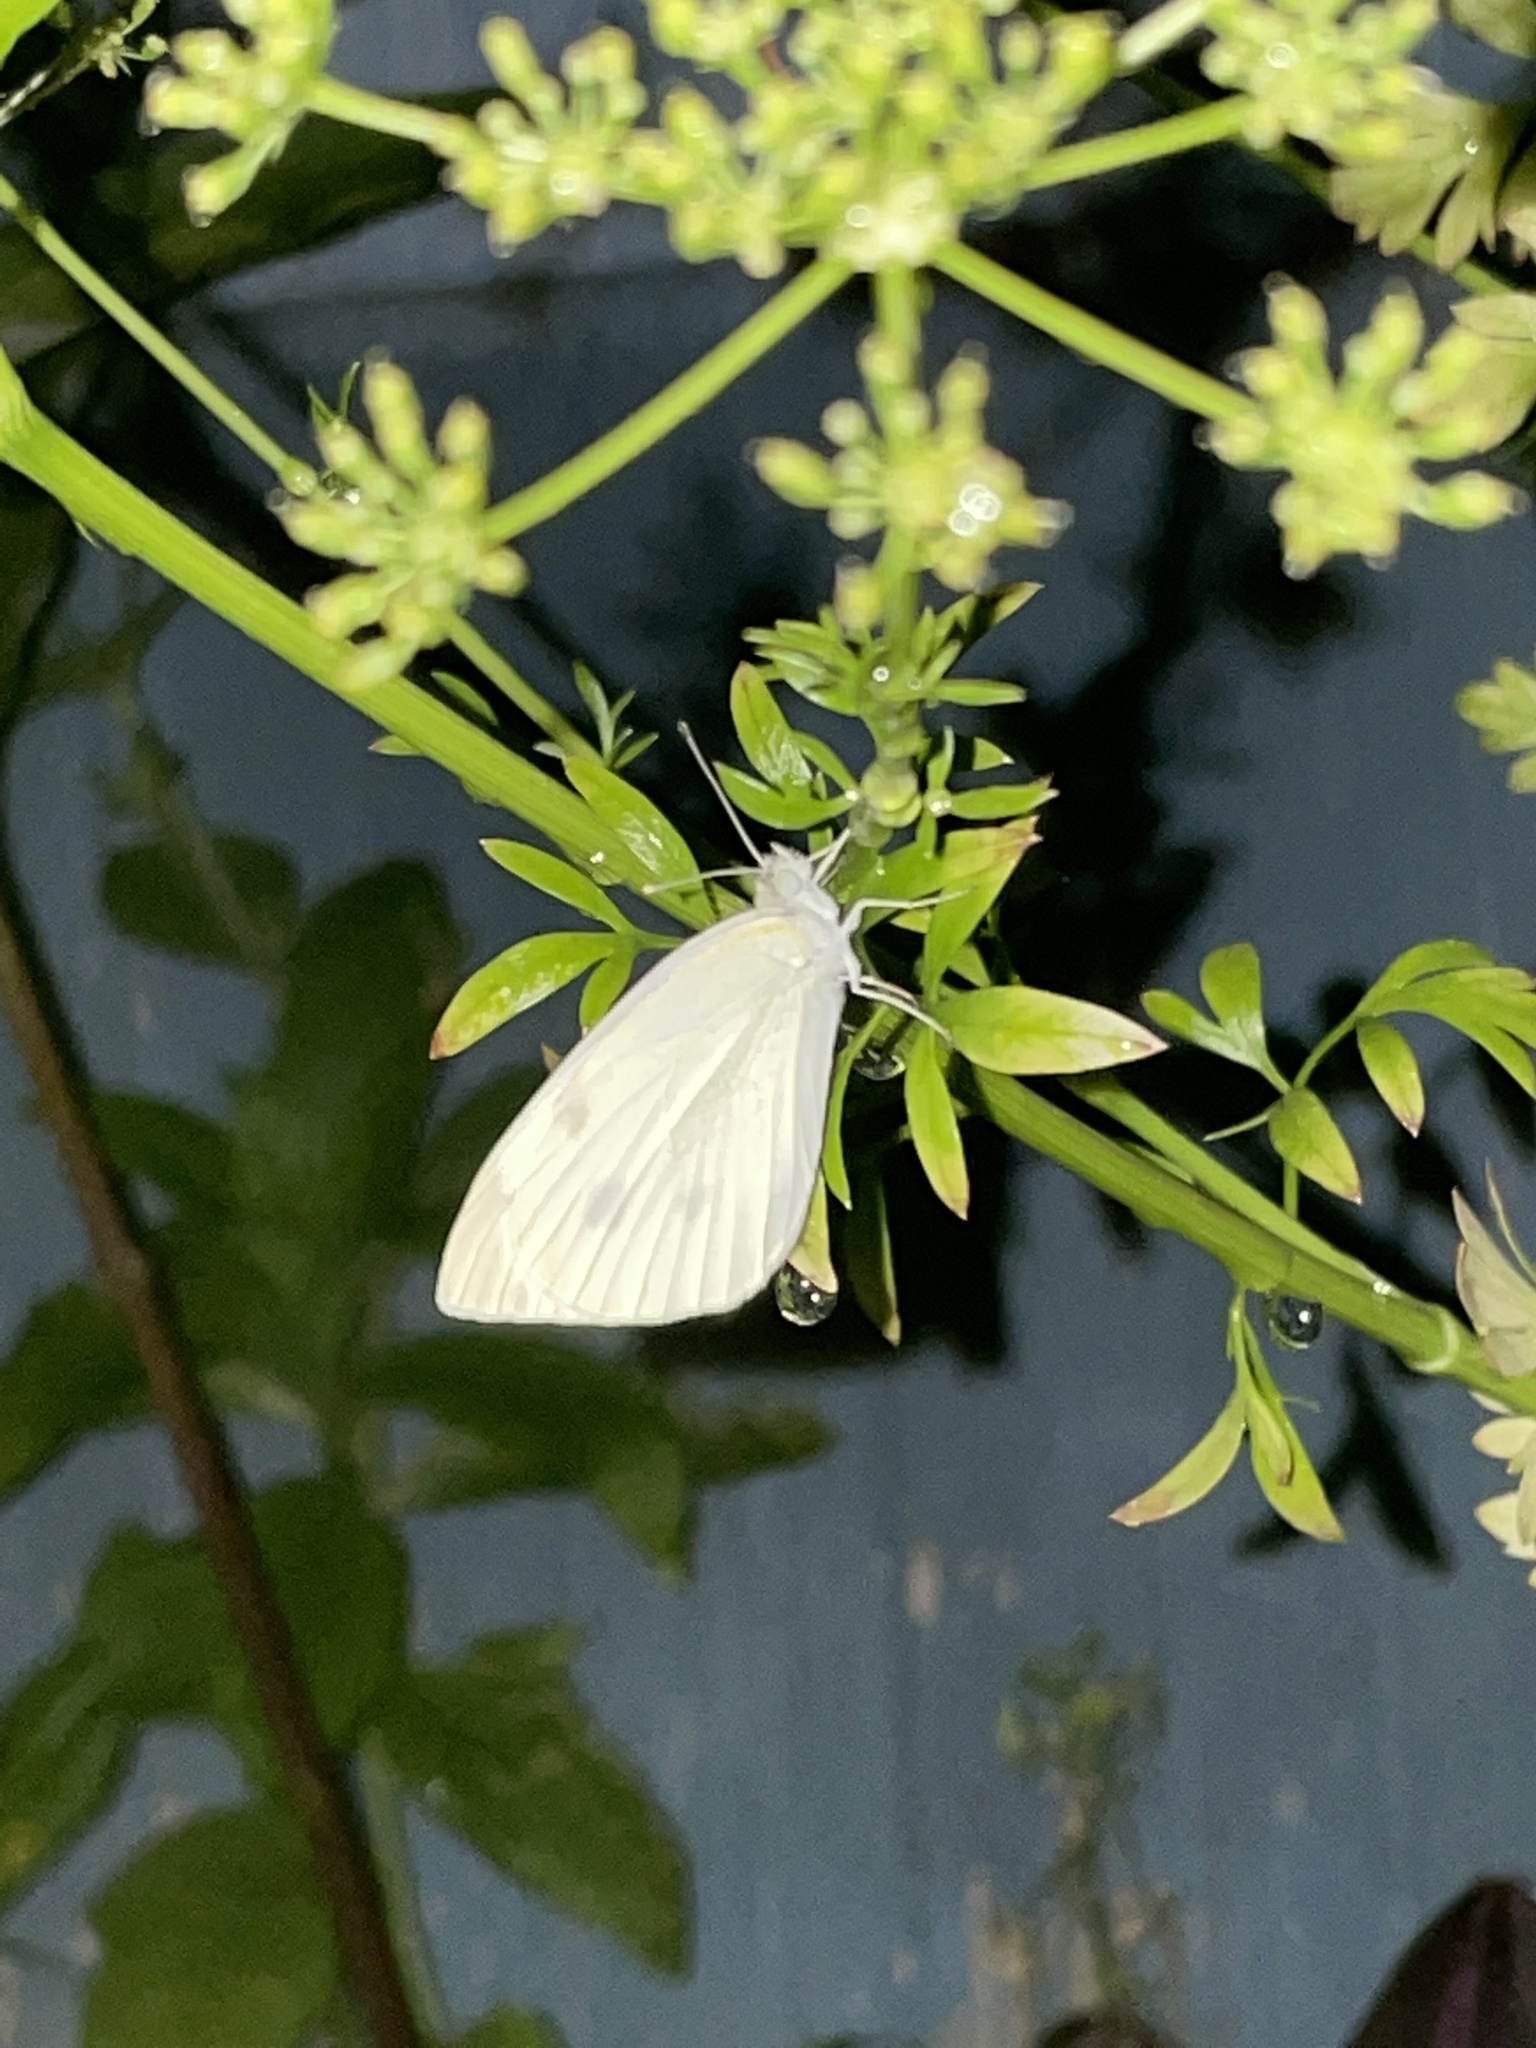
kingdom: Animalia
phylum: Arthropoda
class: Insecta
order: Lepidoptera
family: Pieridae
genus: Pieris
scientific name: Pieris rapae
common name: Small white
